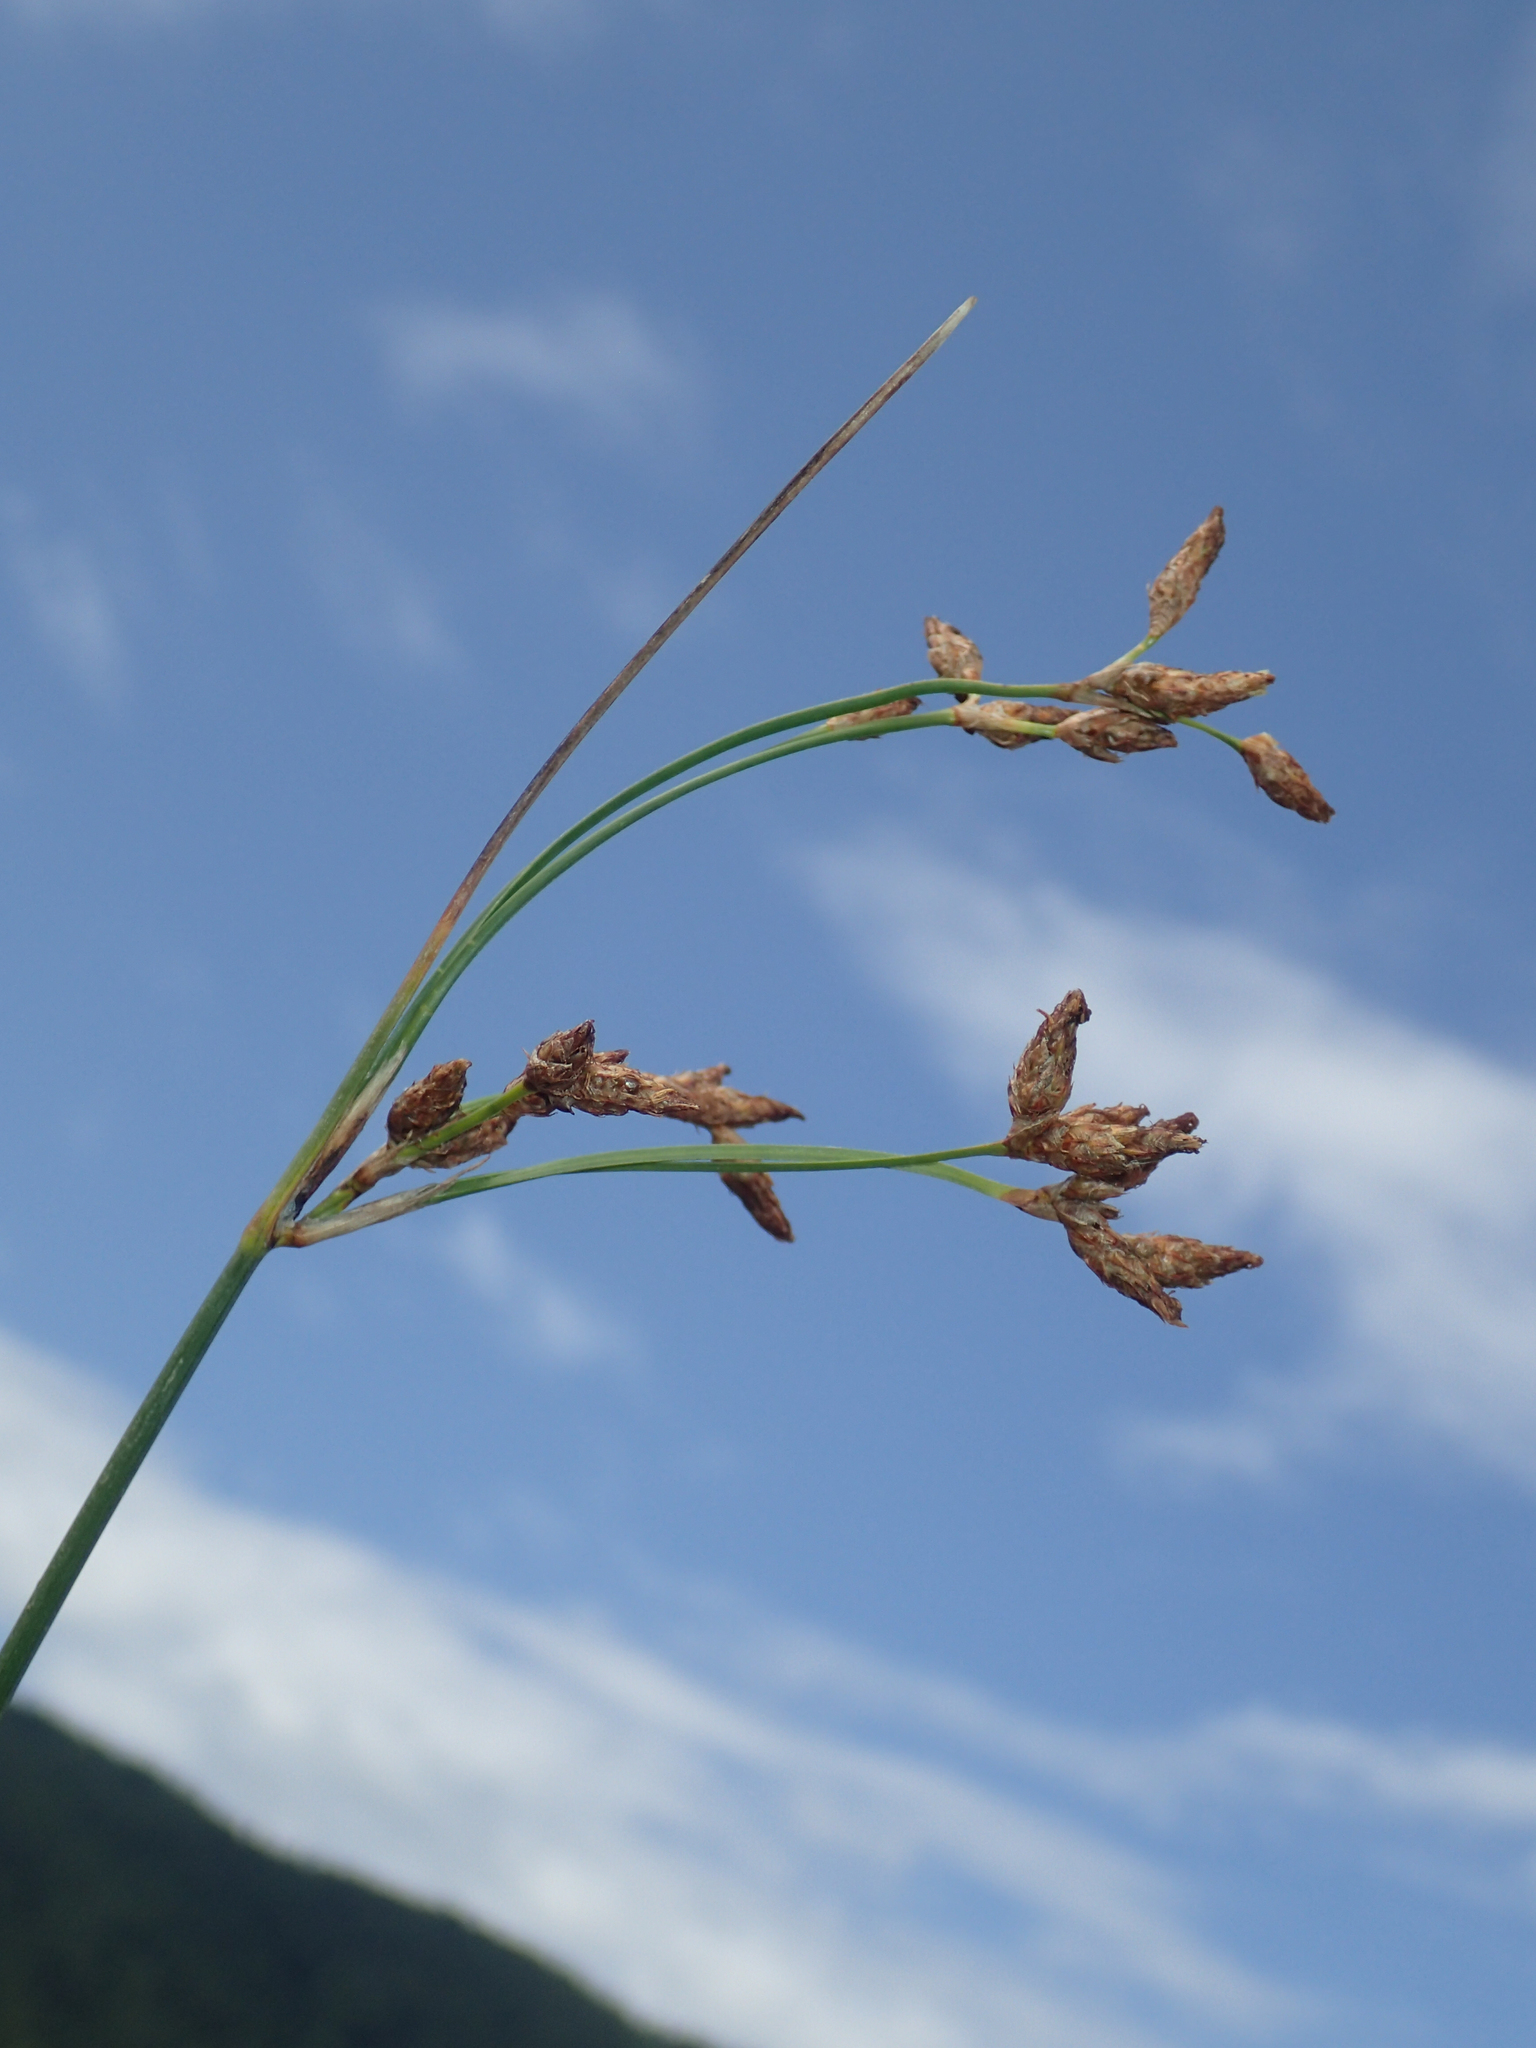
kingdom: Plantae
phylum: Tracheophyta
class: Liliopsida
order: Poales
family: Cyperaceae
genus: Schoenoplectus
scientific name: Schoenoplectus lacustris
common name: Common club-rush
